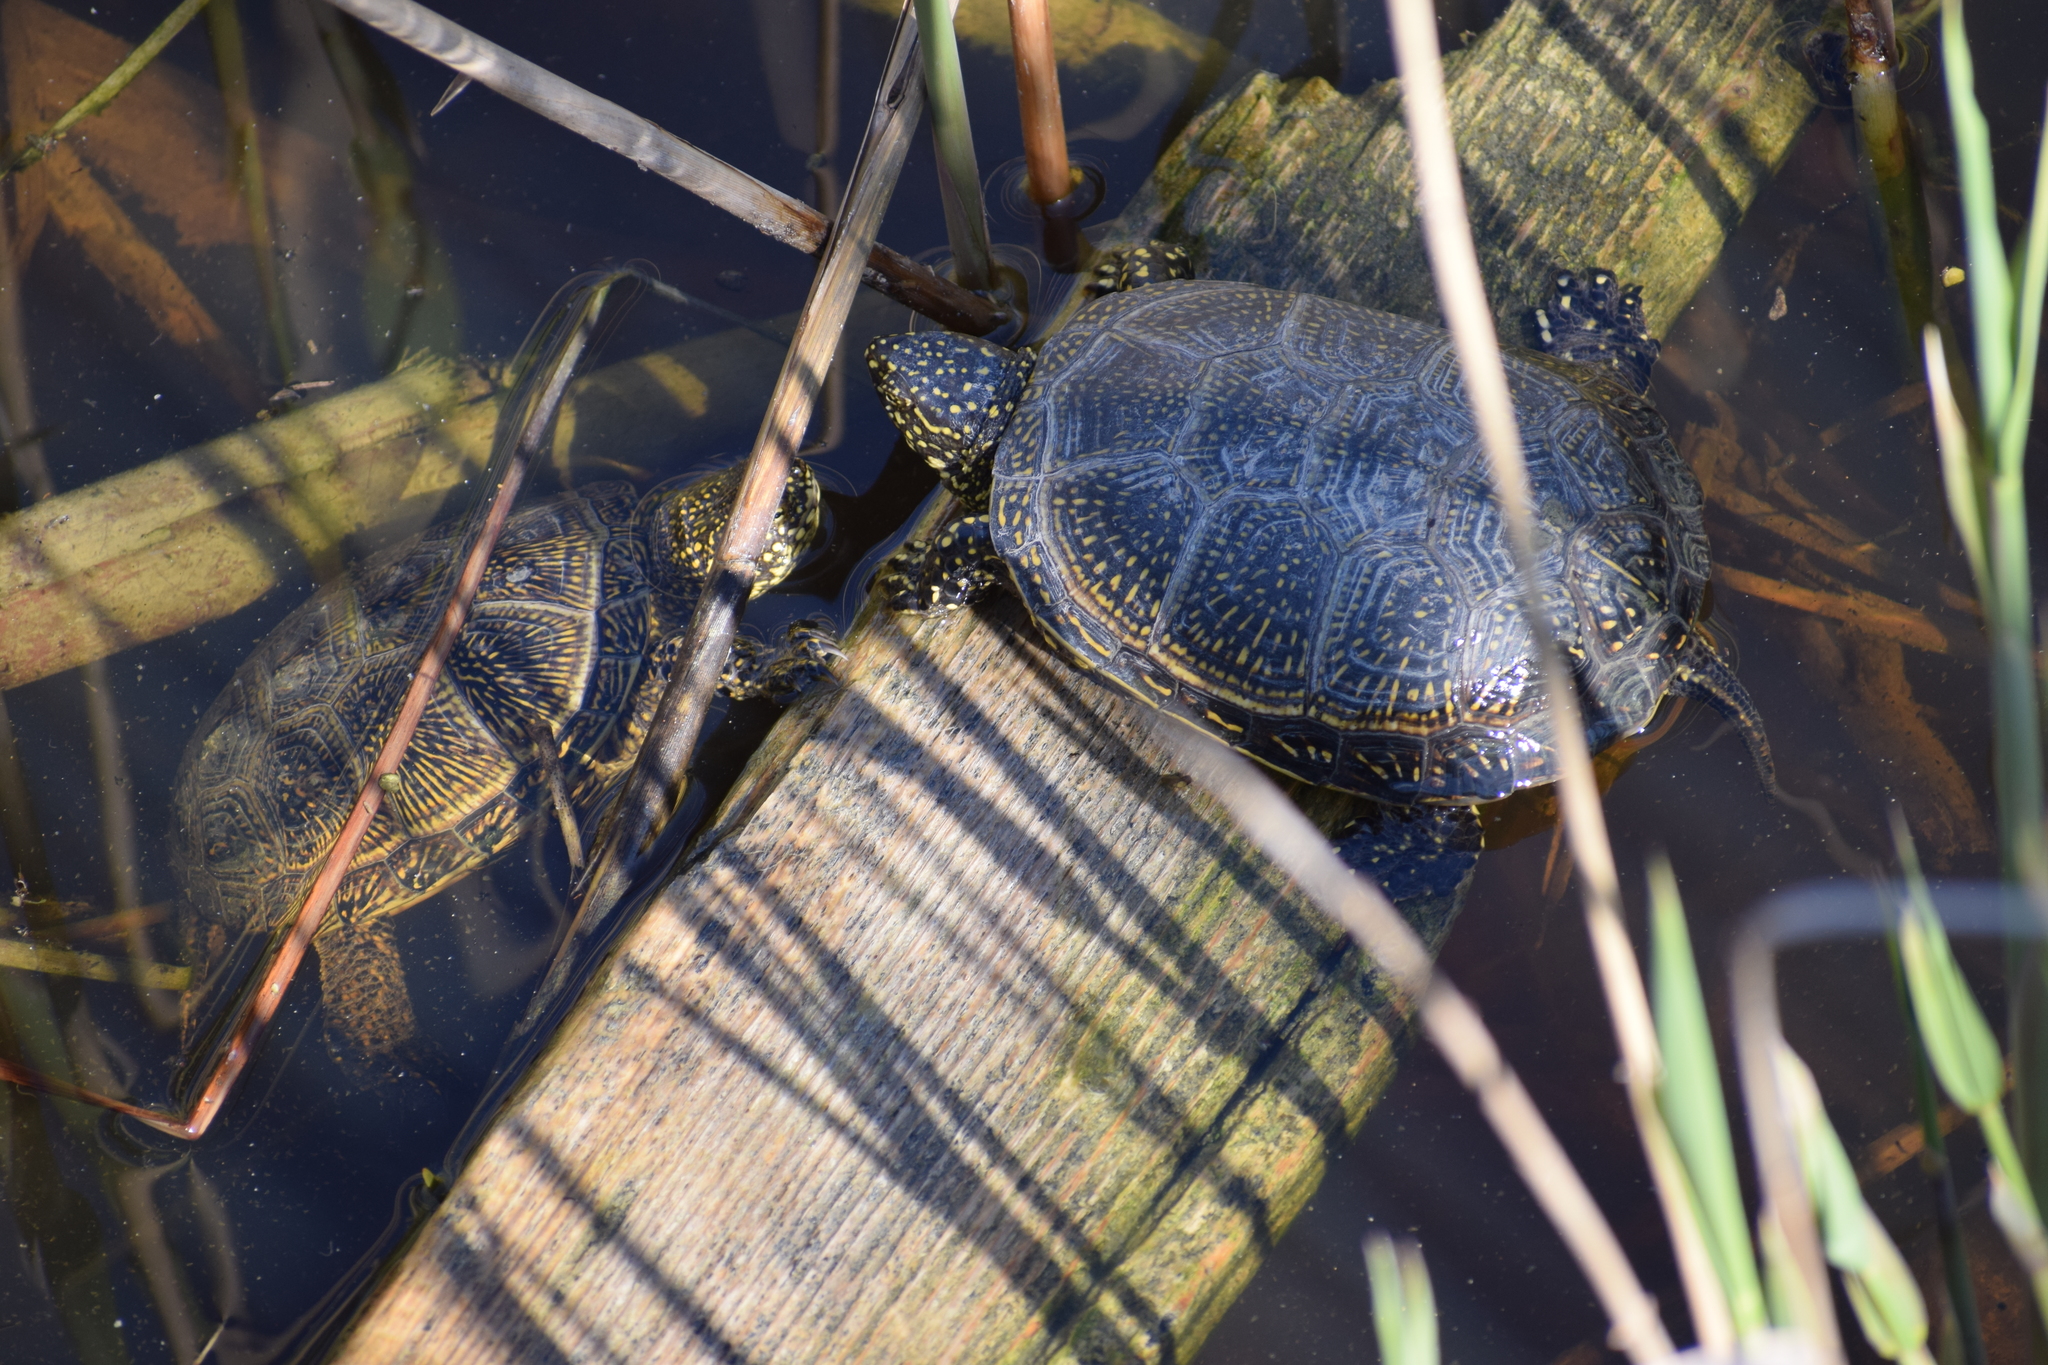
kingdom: Animalia
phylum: Chordata
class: Testudines
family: Emydidae
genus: Emys
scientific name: Emys orbicularis
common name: European pond turtle
